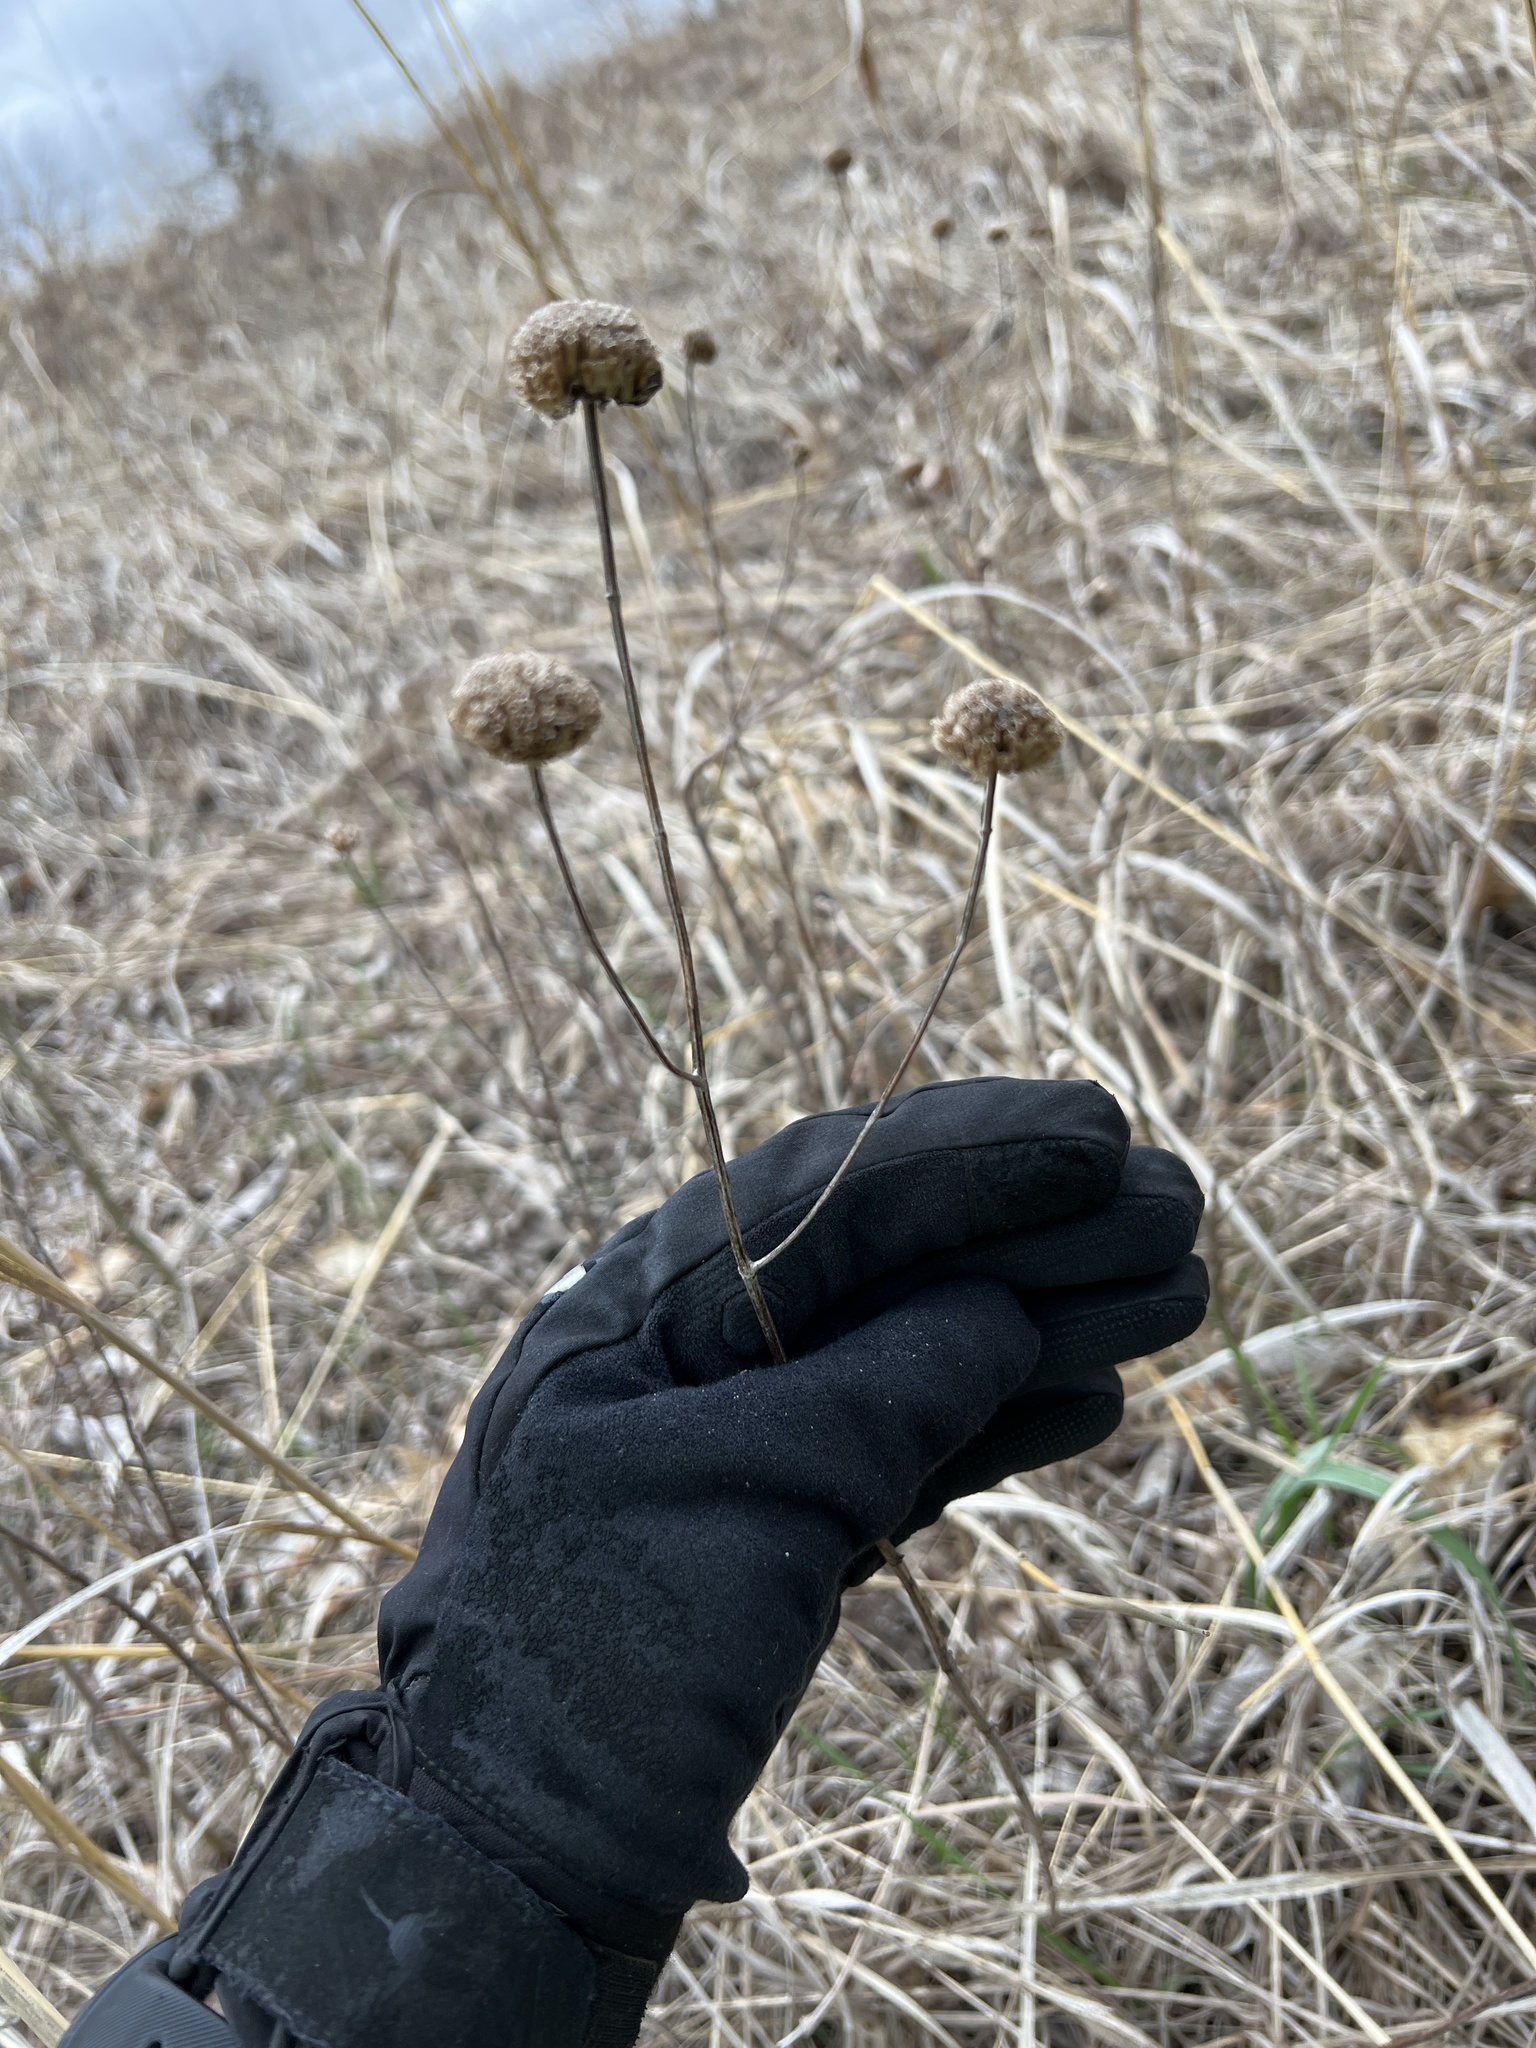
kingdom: Plantae
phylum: Tracheophyta
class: Magnoliopsida
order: Lamiales
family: Lamiaceae
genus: Monarda
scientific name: Monarda fistulosa
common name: Purple beebalm
